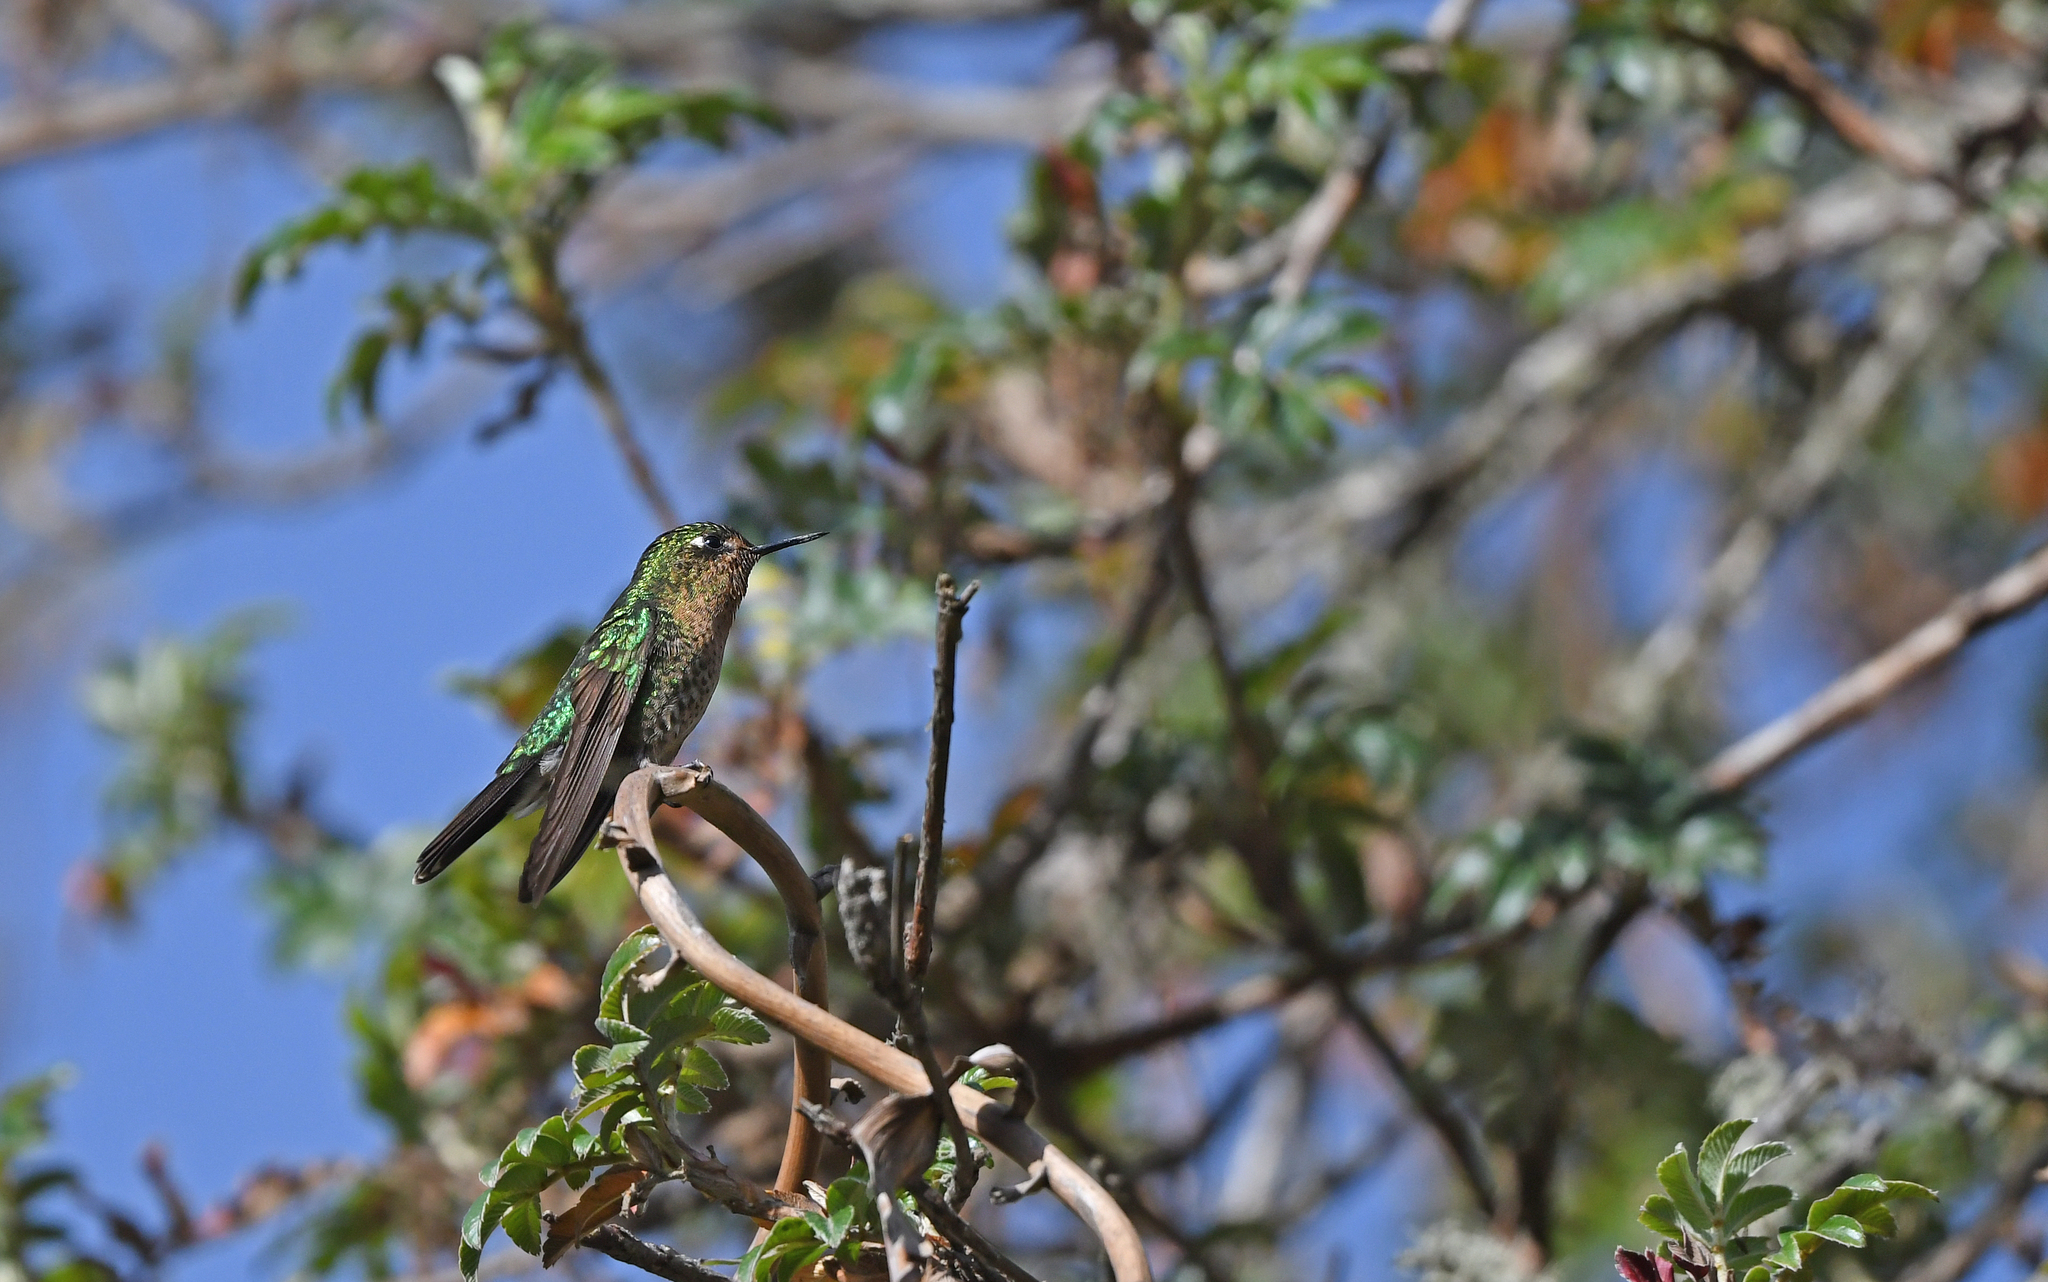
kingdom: Animalia
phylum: Chordata
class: Aves
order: Apodiformes
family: Trochilidae
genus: Metallura
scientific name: Metallura tyrianthina
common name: Tyrian metaltail
